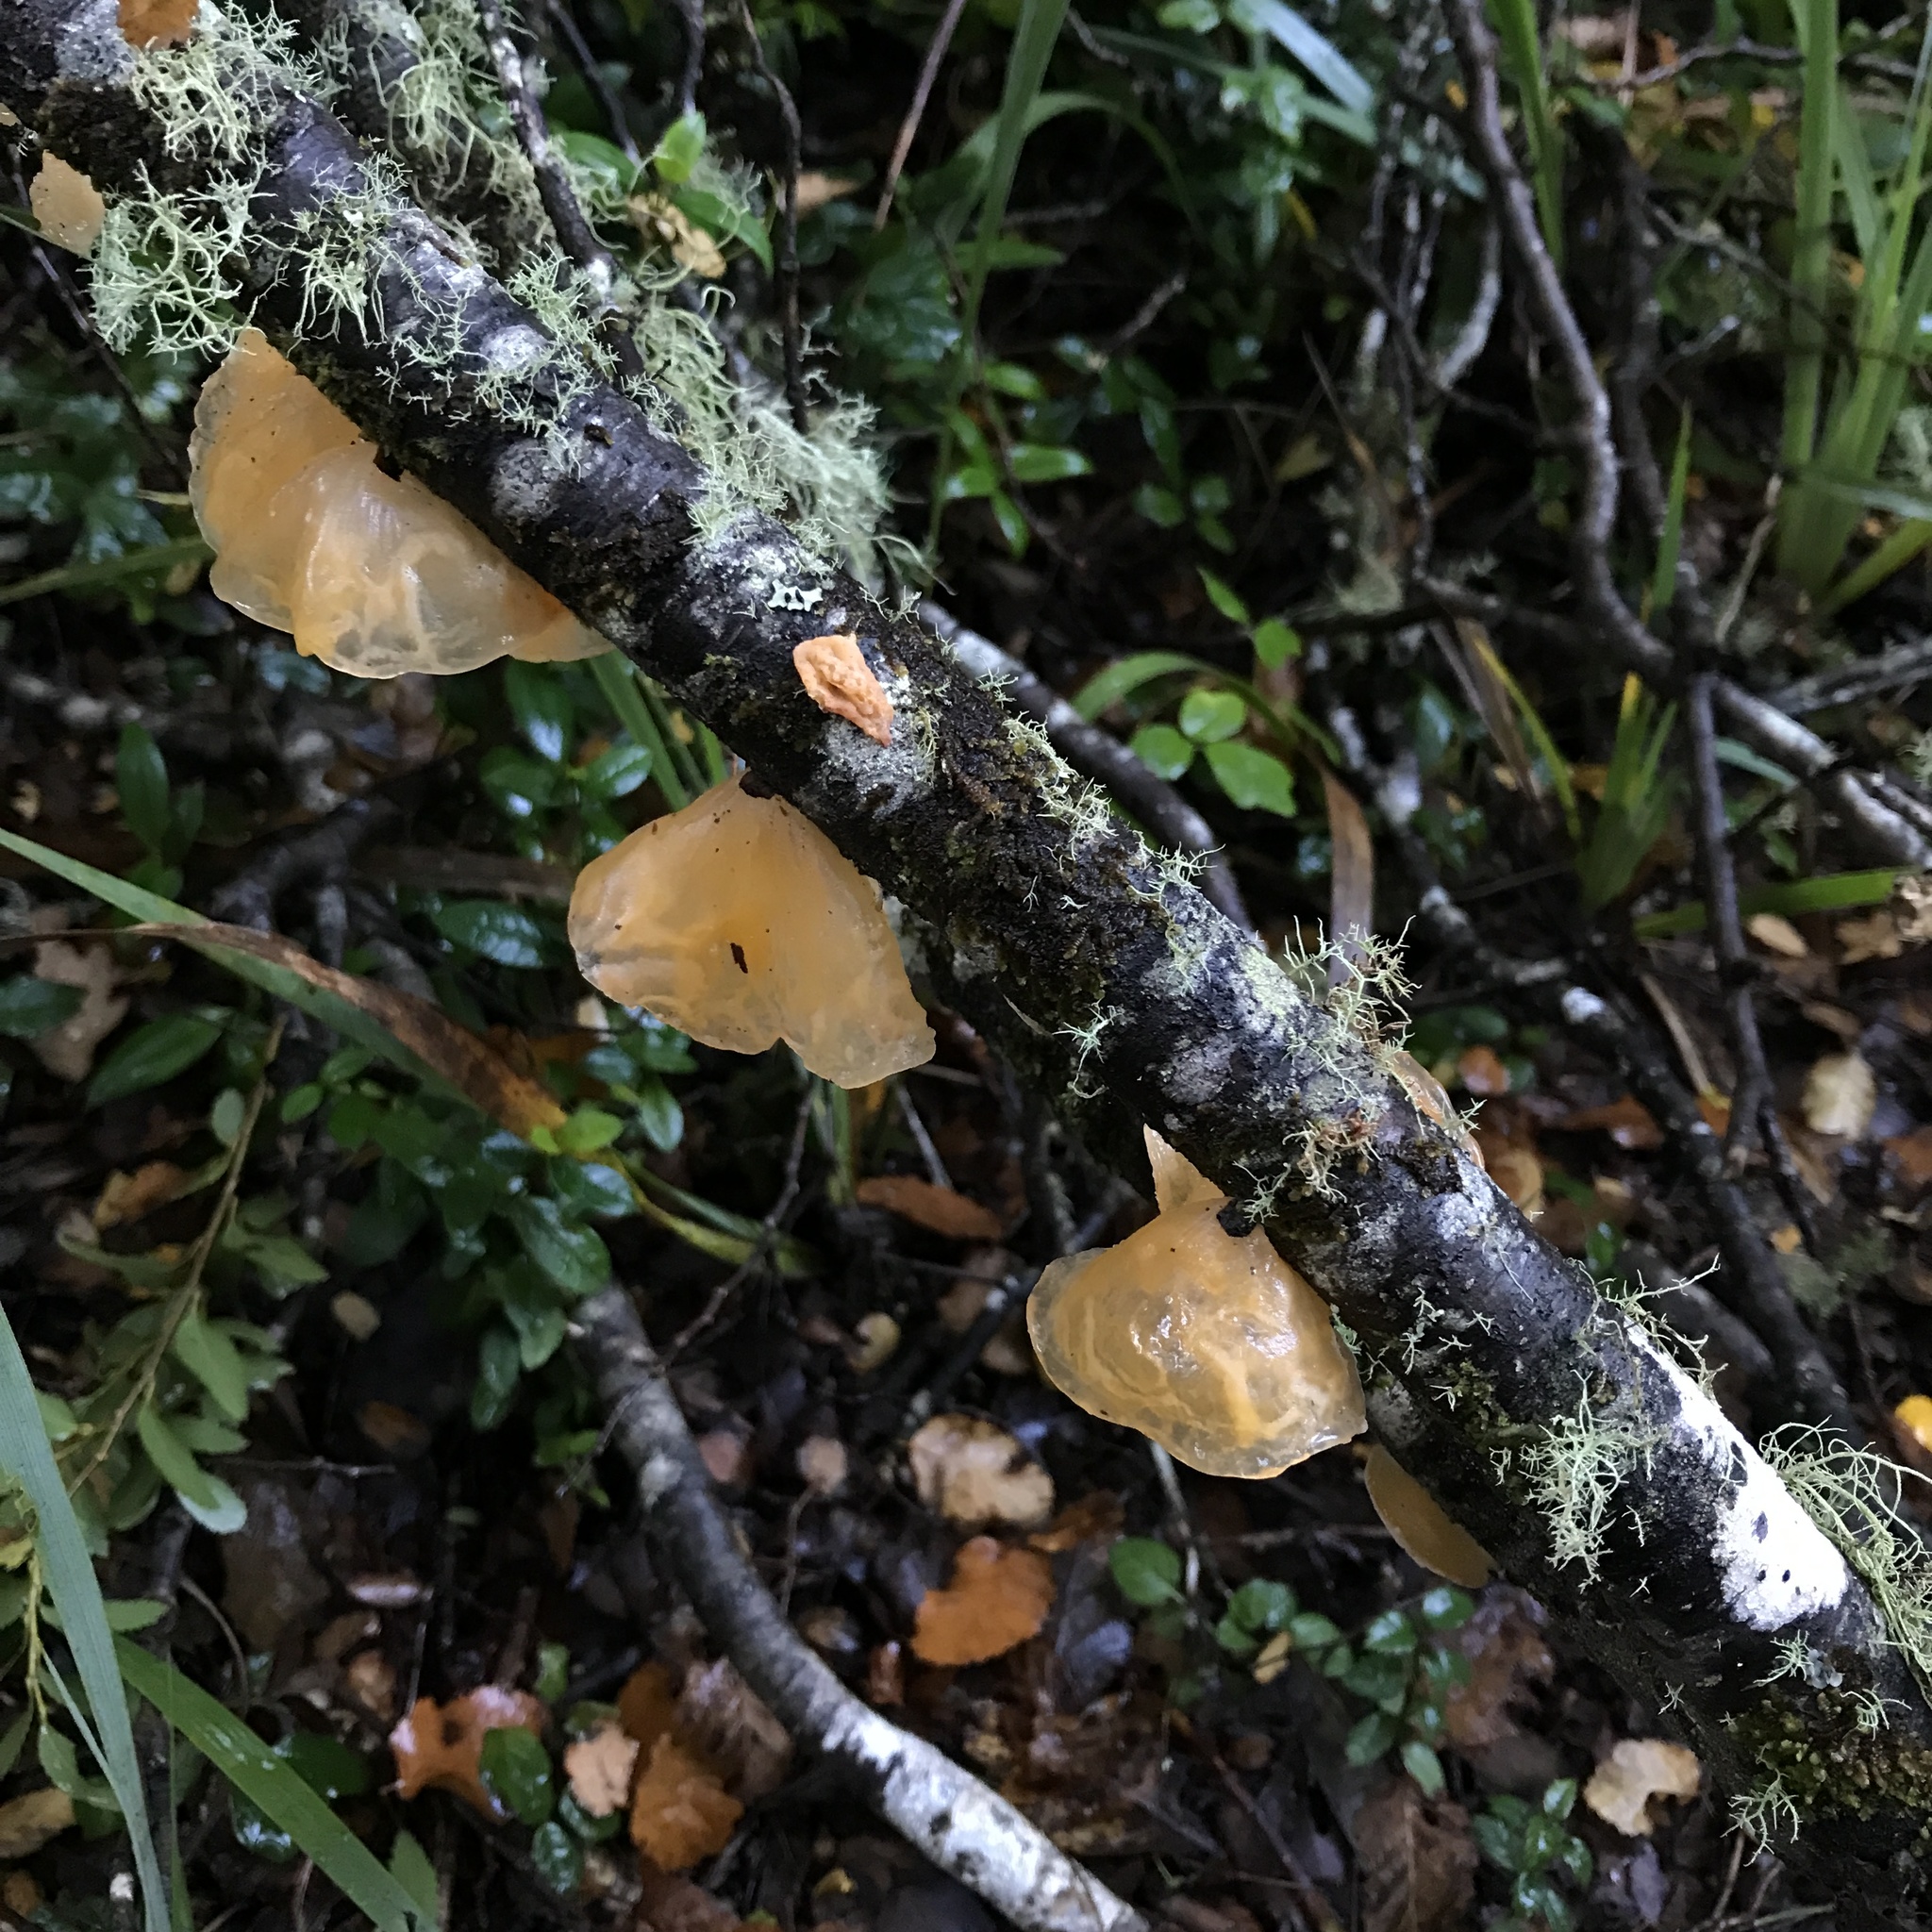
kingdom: Fungi
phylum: Basidiomycota
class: Agaricomycetes
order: Russulales
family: Stereaceae
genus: Aleurodiscus
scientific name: Aleurodiscus vitellinus
